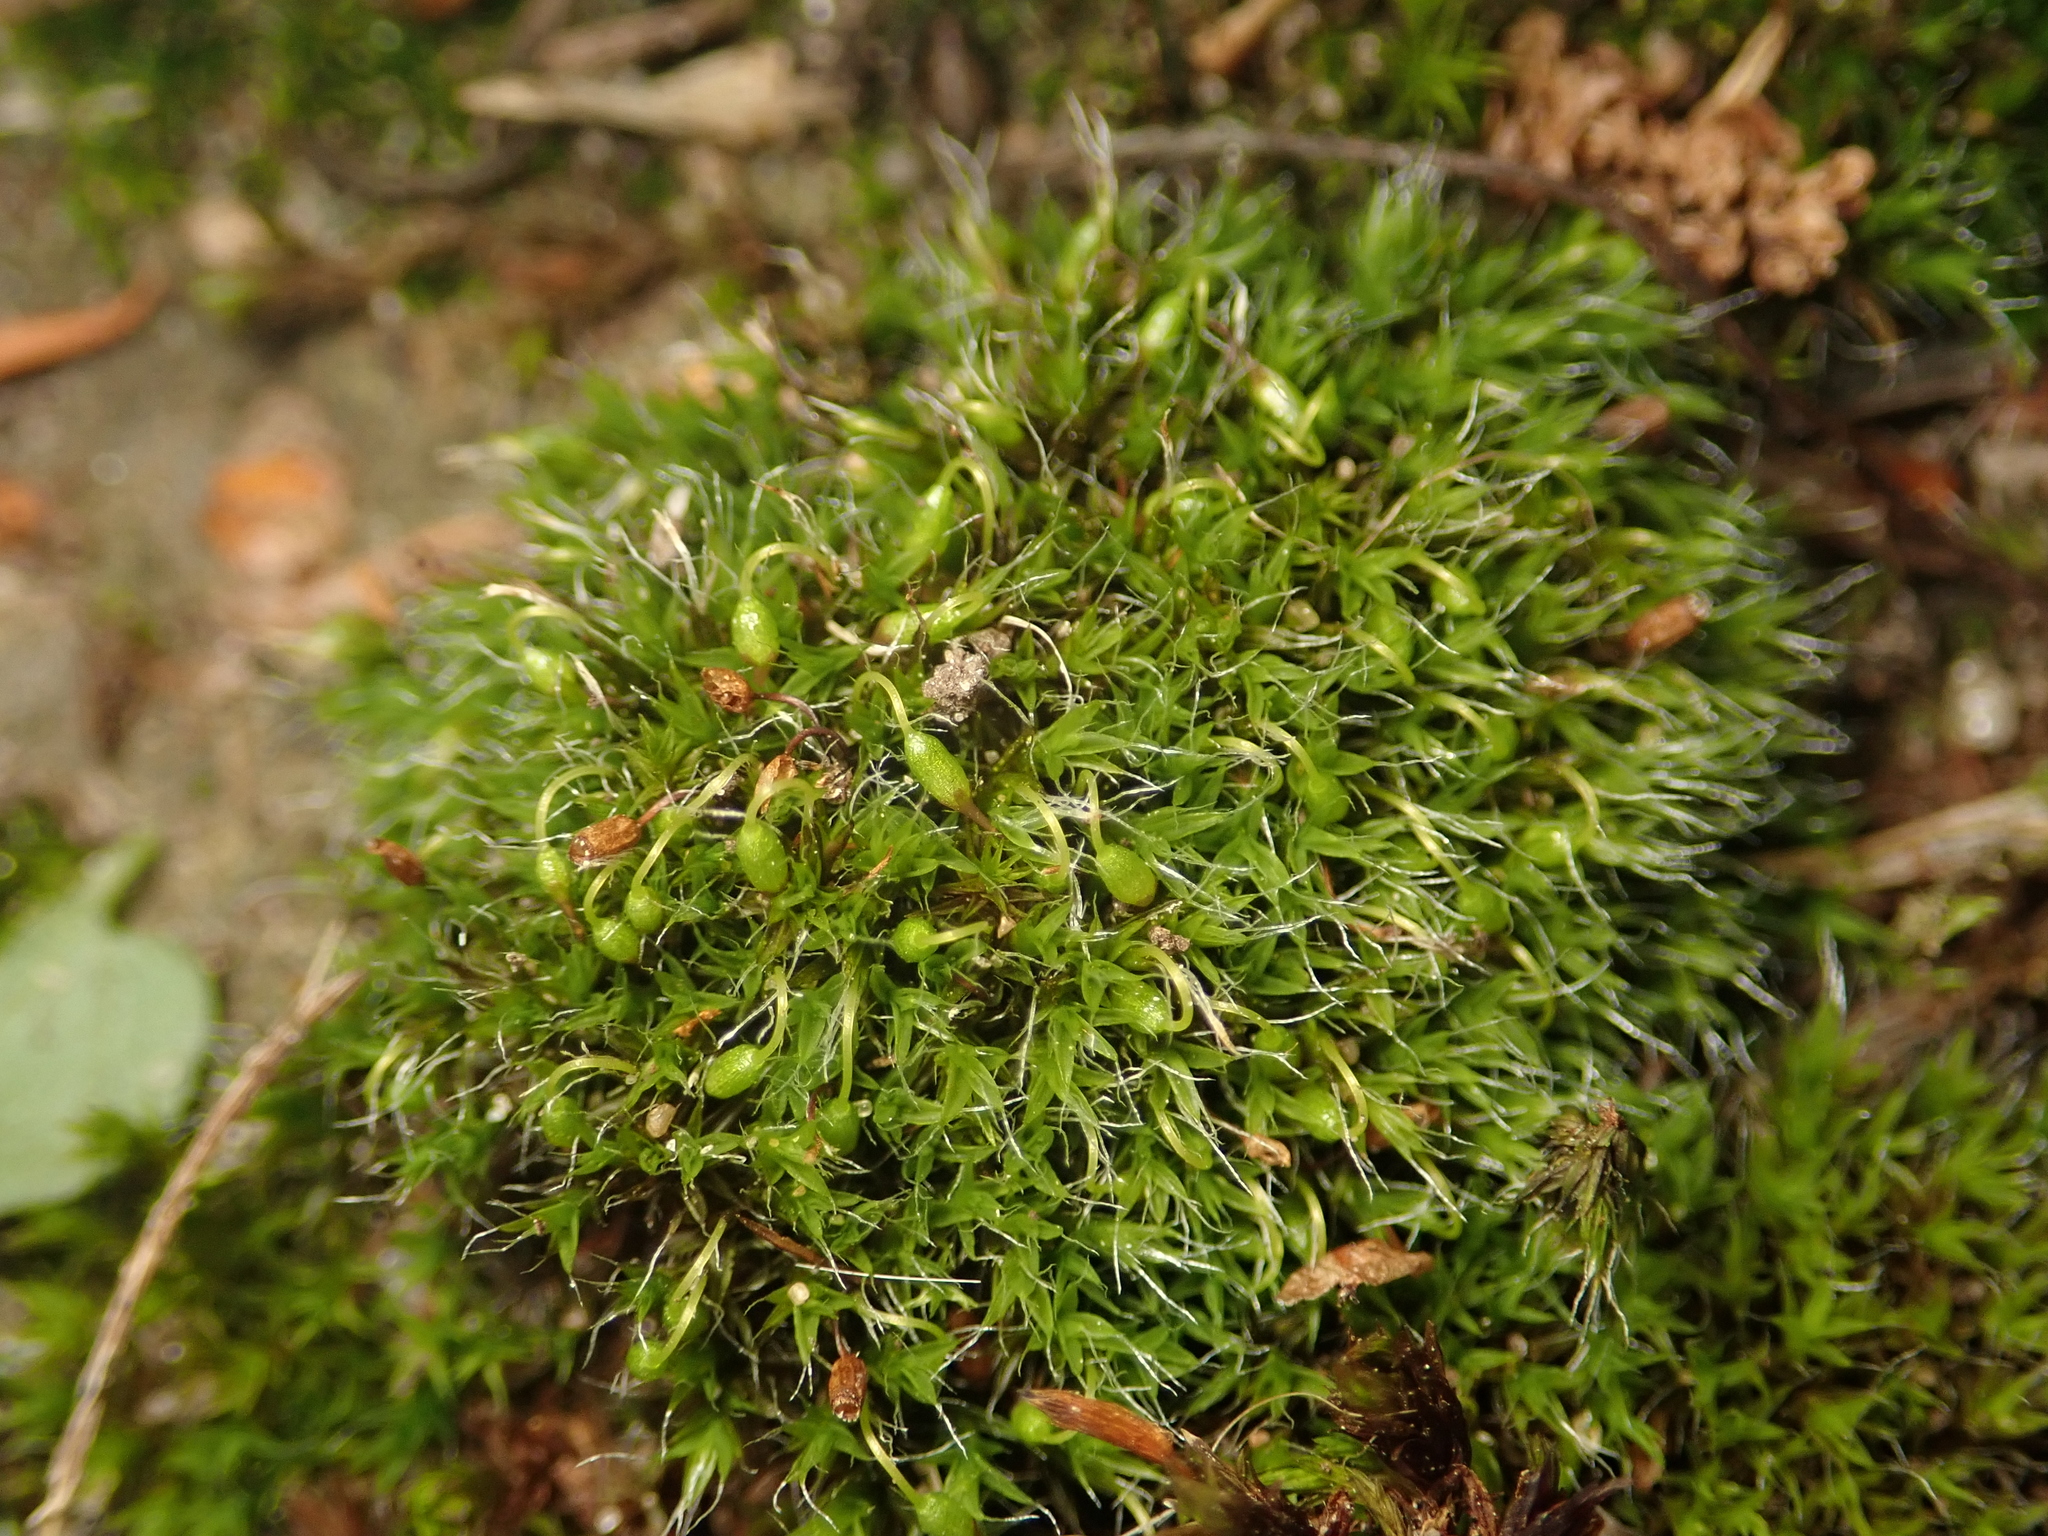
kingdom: Plantae
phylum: Bryophyta
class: Bryopsida
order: Grimmiales
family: Grimmiaceae
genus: Grimmia
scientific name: Grimmia pulvinata
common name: Grey-cushioned grimmia
